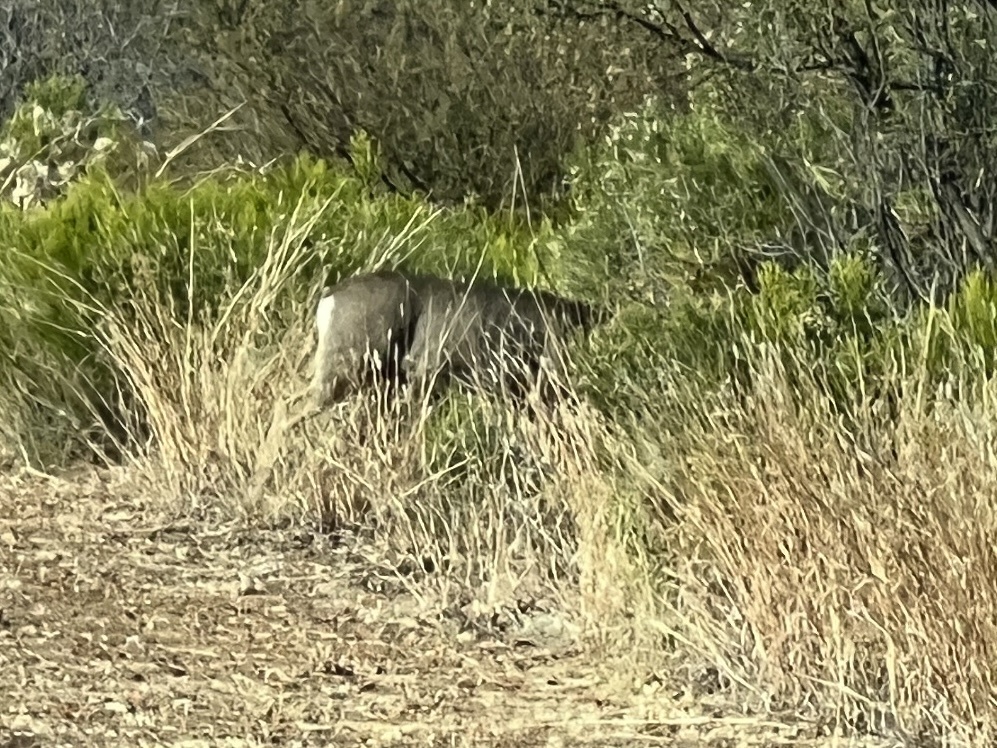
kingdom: Animalia
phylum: Chordata
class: Mammalia
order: Artiodactyla
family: Cervidae
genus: Odocoileus
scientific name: Odocoileus hemionus
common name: Mule deer
